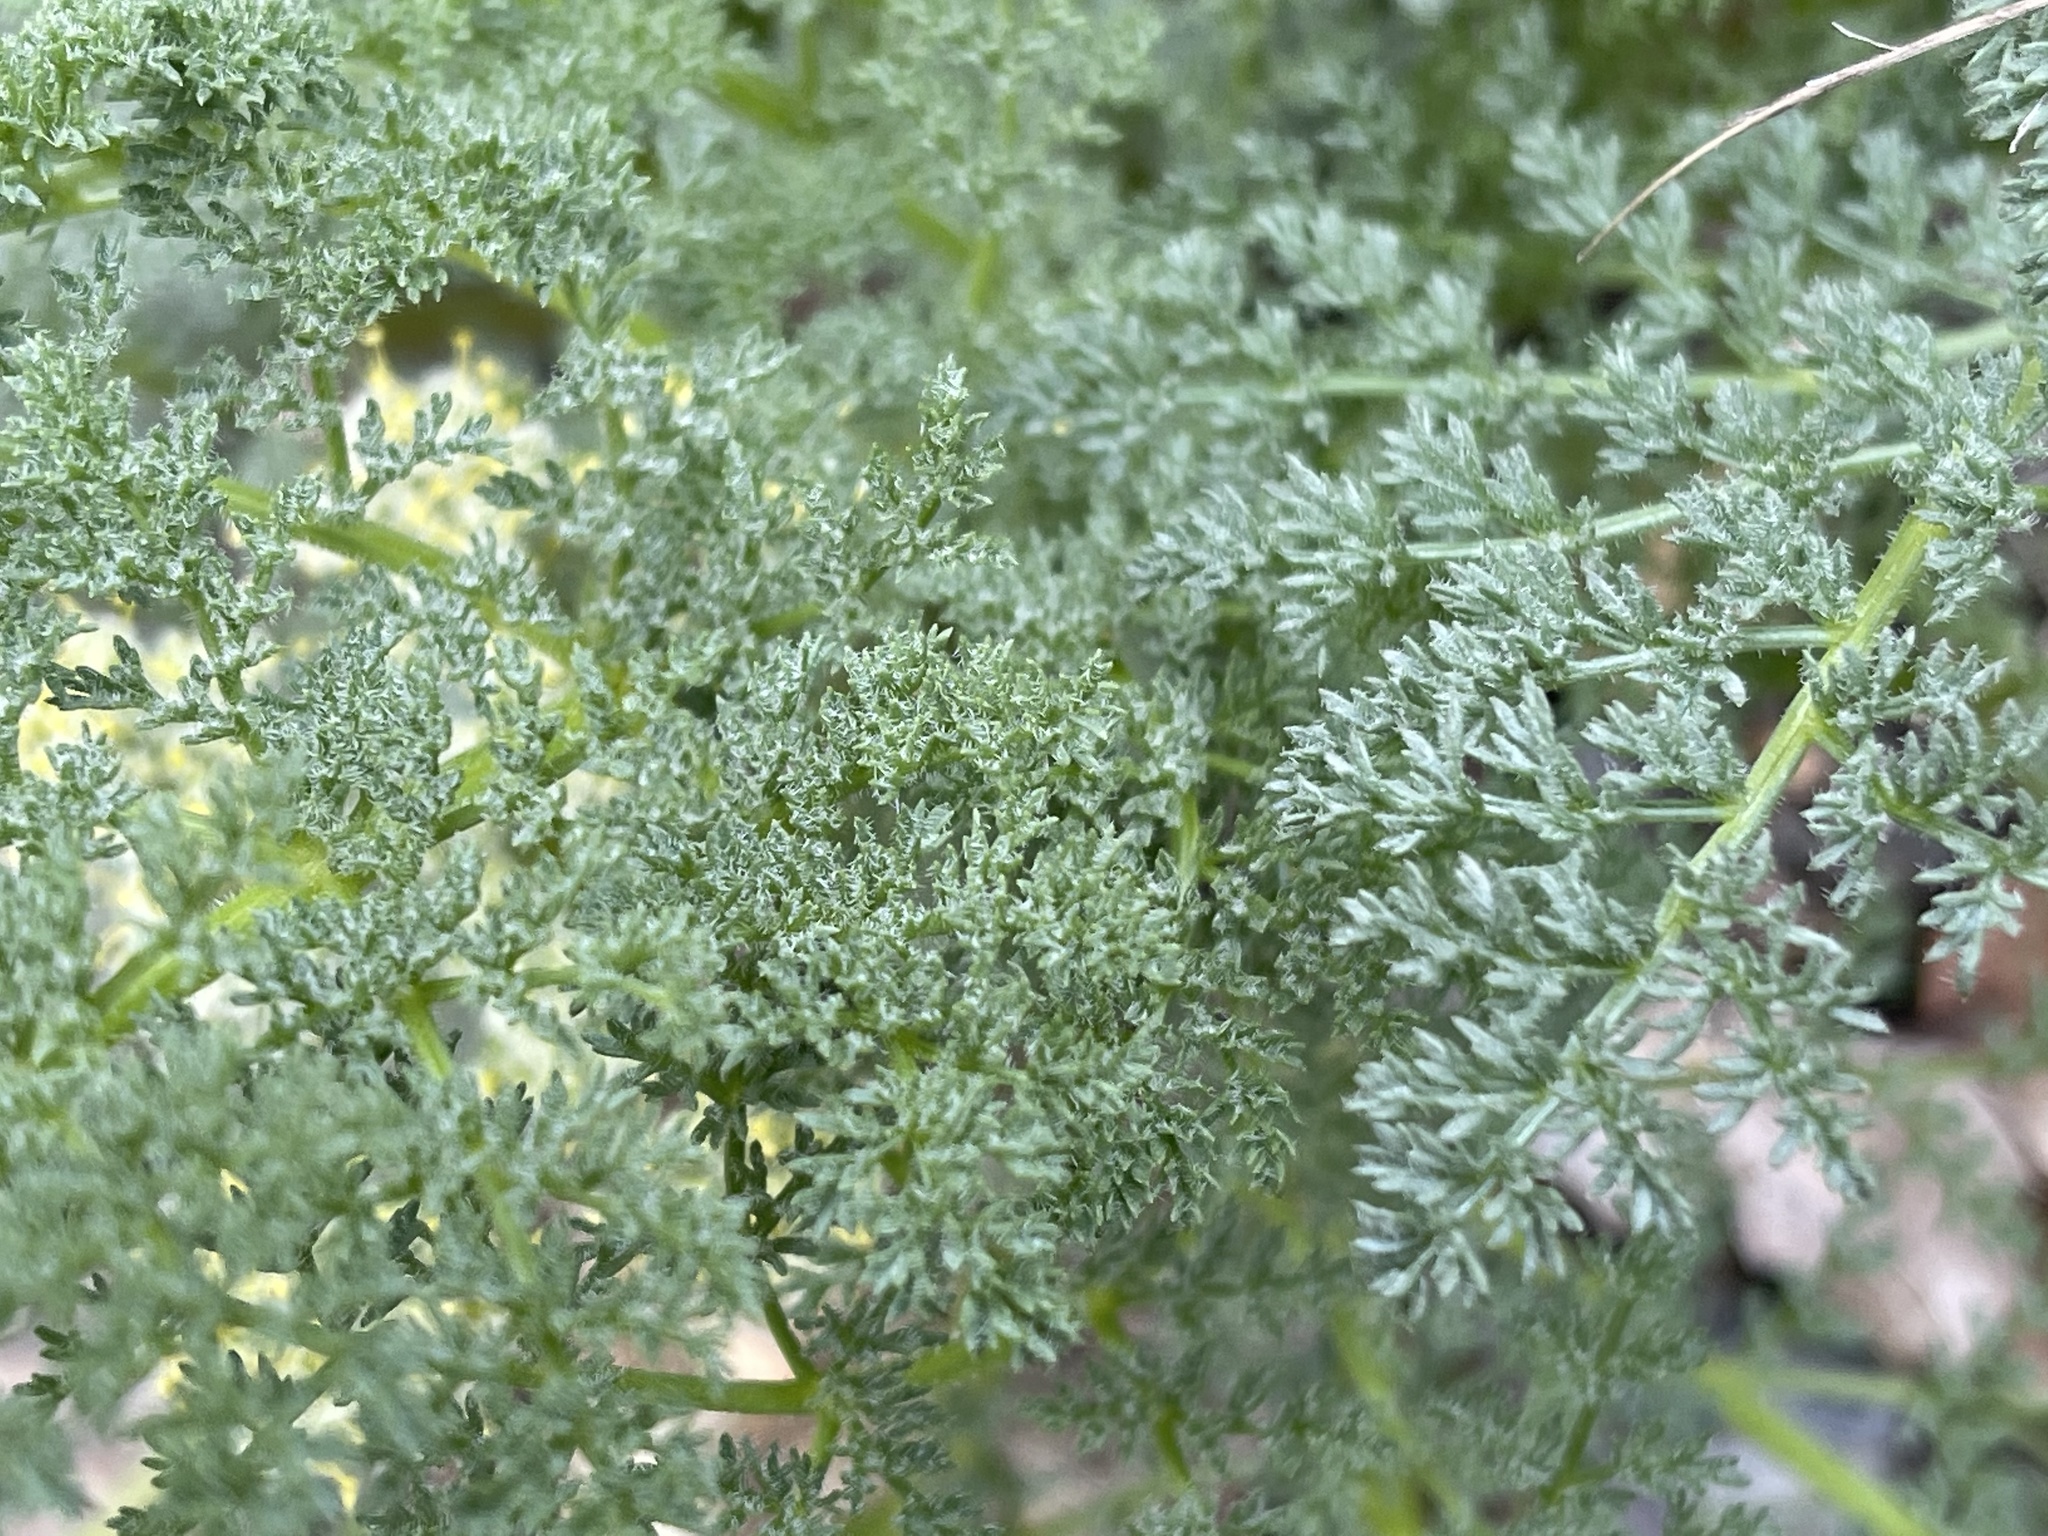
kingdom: Plantae
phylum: Tracheophyta
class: Magnoliopsida
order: Apiales
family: Apiaceae
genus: Lomatium
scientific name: Lomatium dasycarpum
